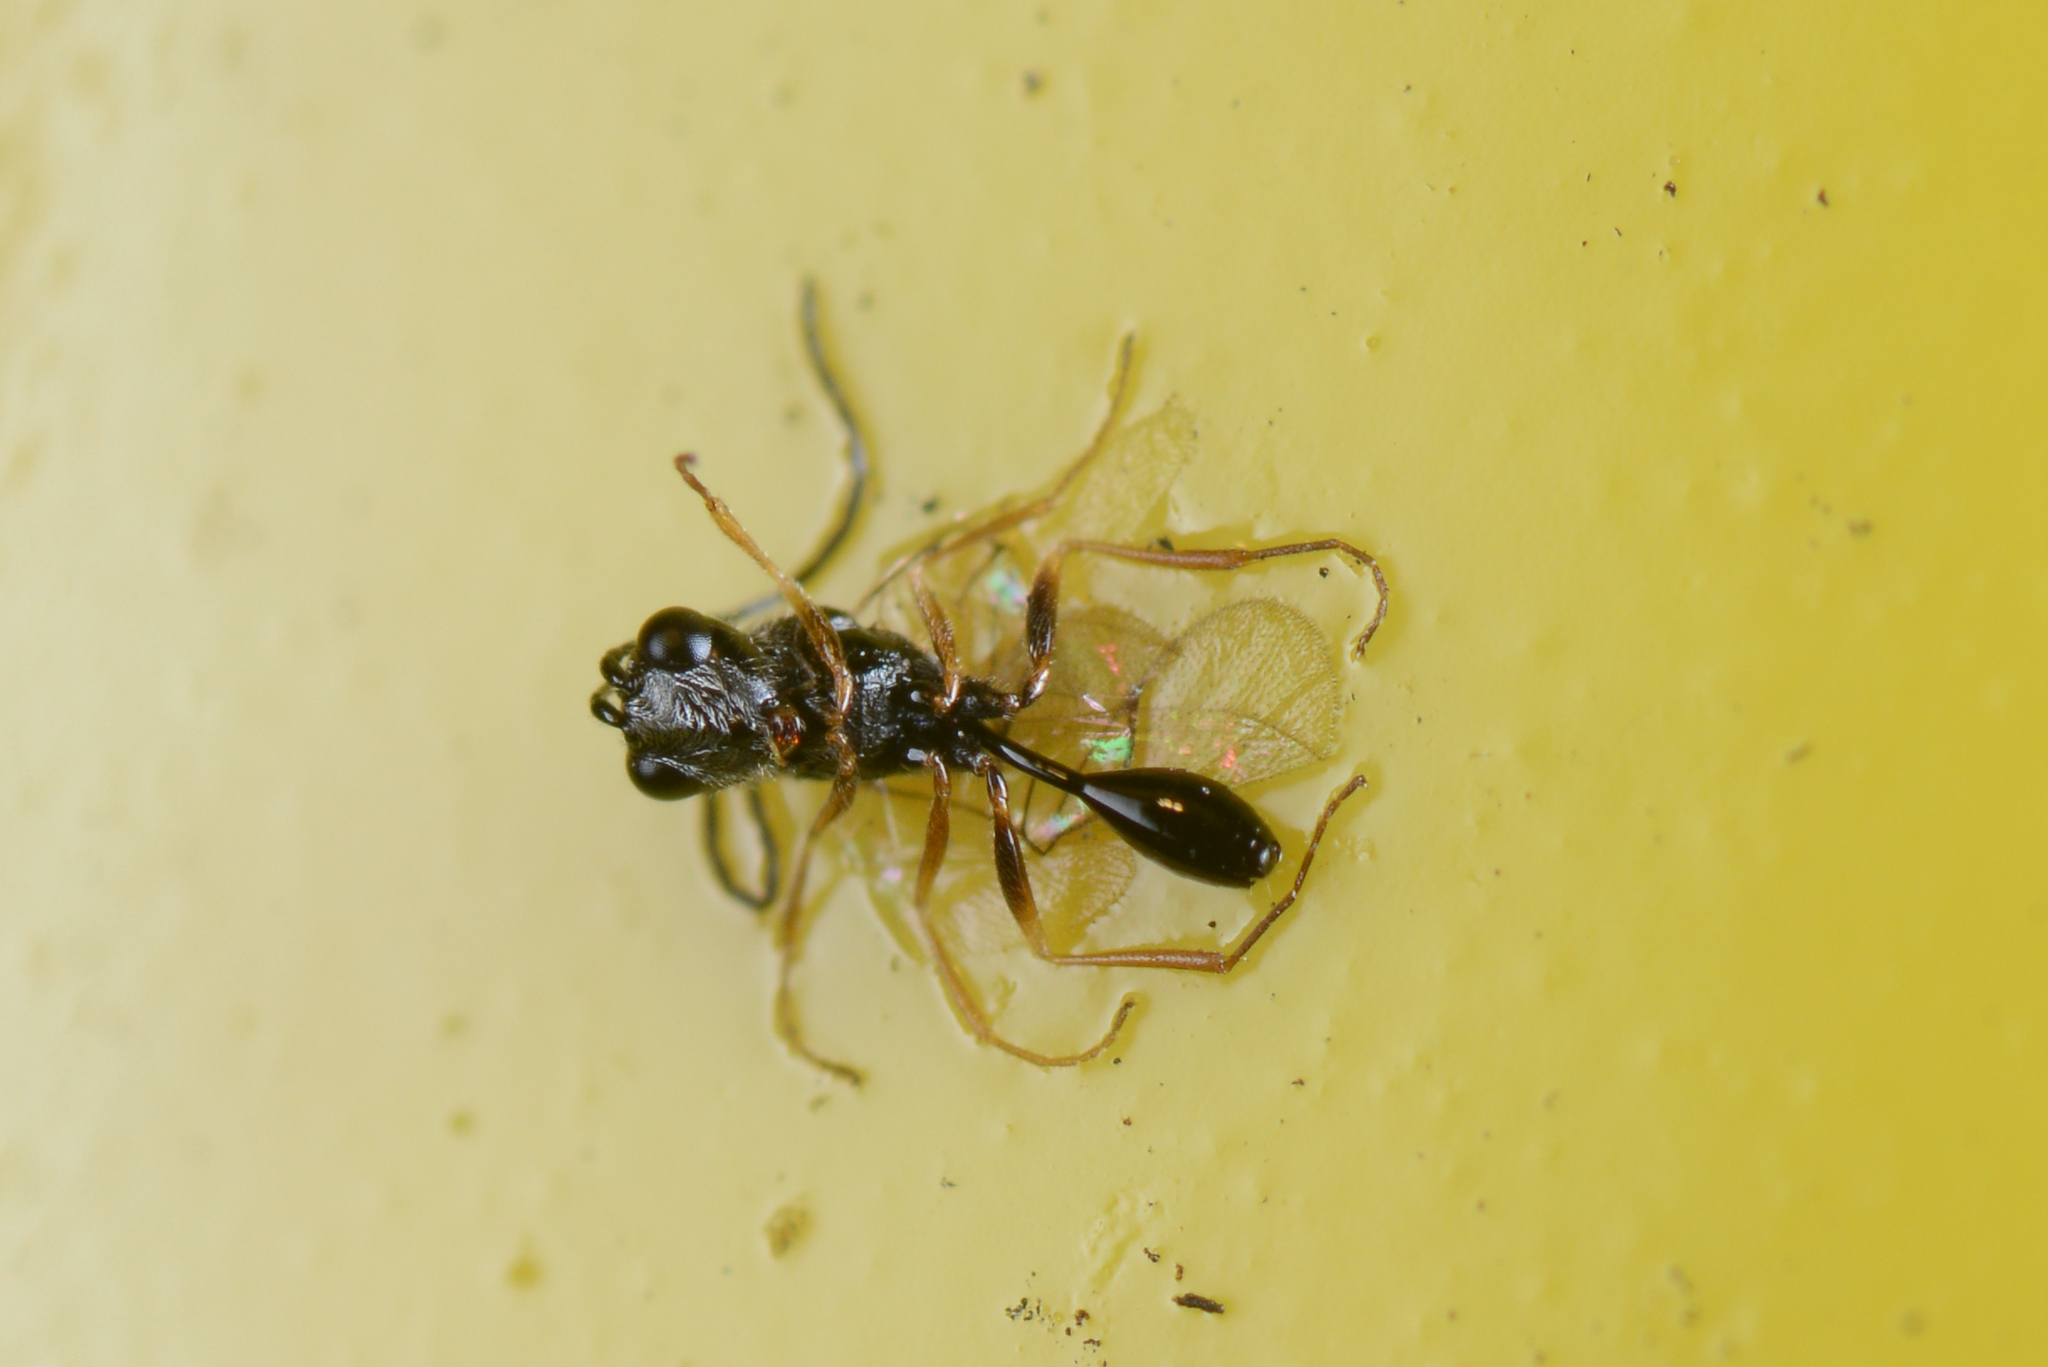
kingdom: Animalia
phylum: Arthropoda
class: Insecta
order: Hymenoptera
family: Figitidae
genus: Anacharis
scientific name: Anacharis zealandica
